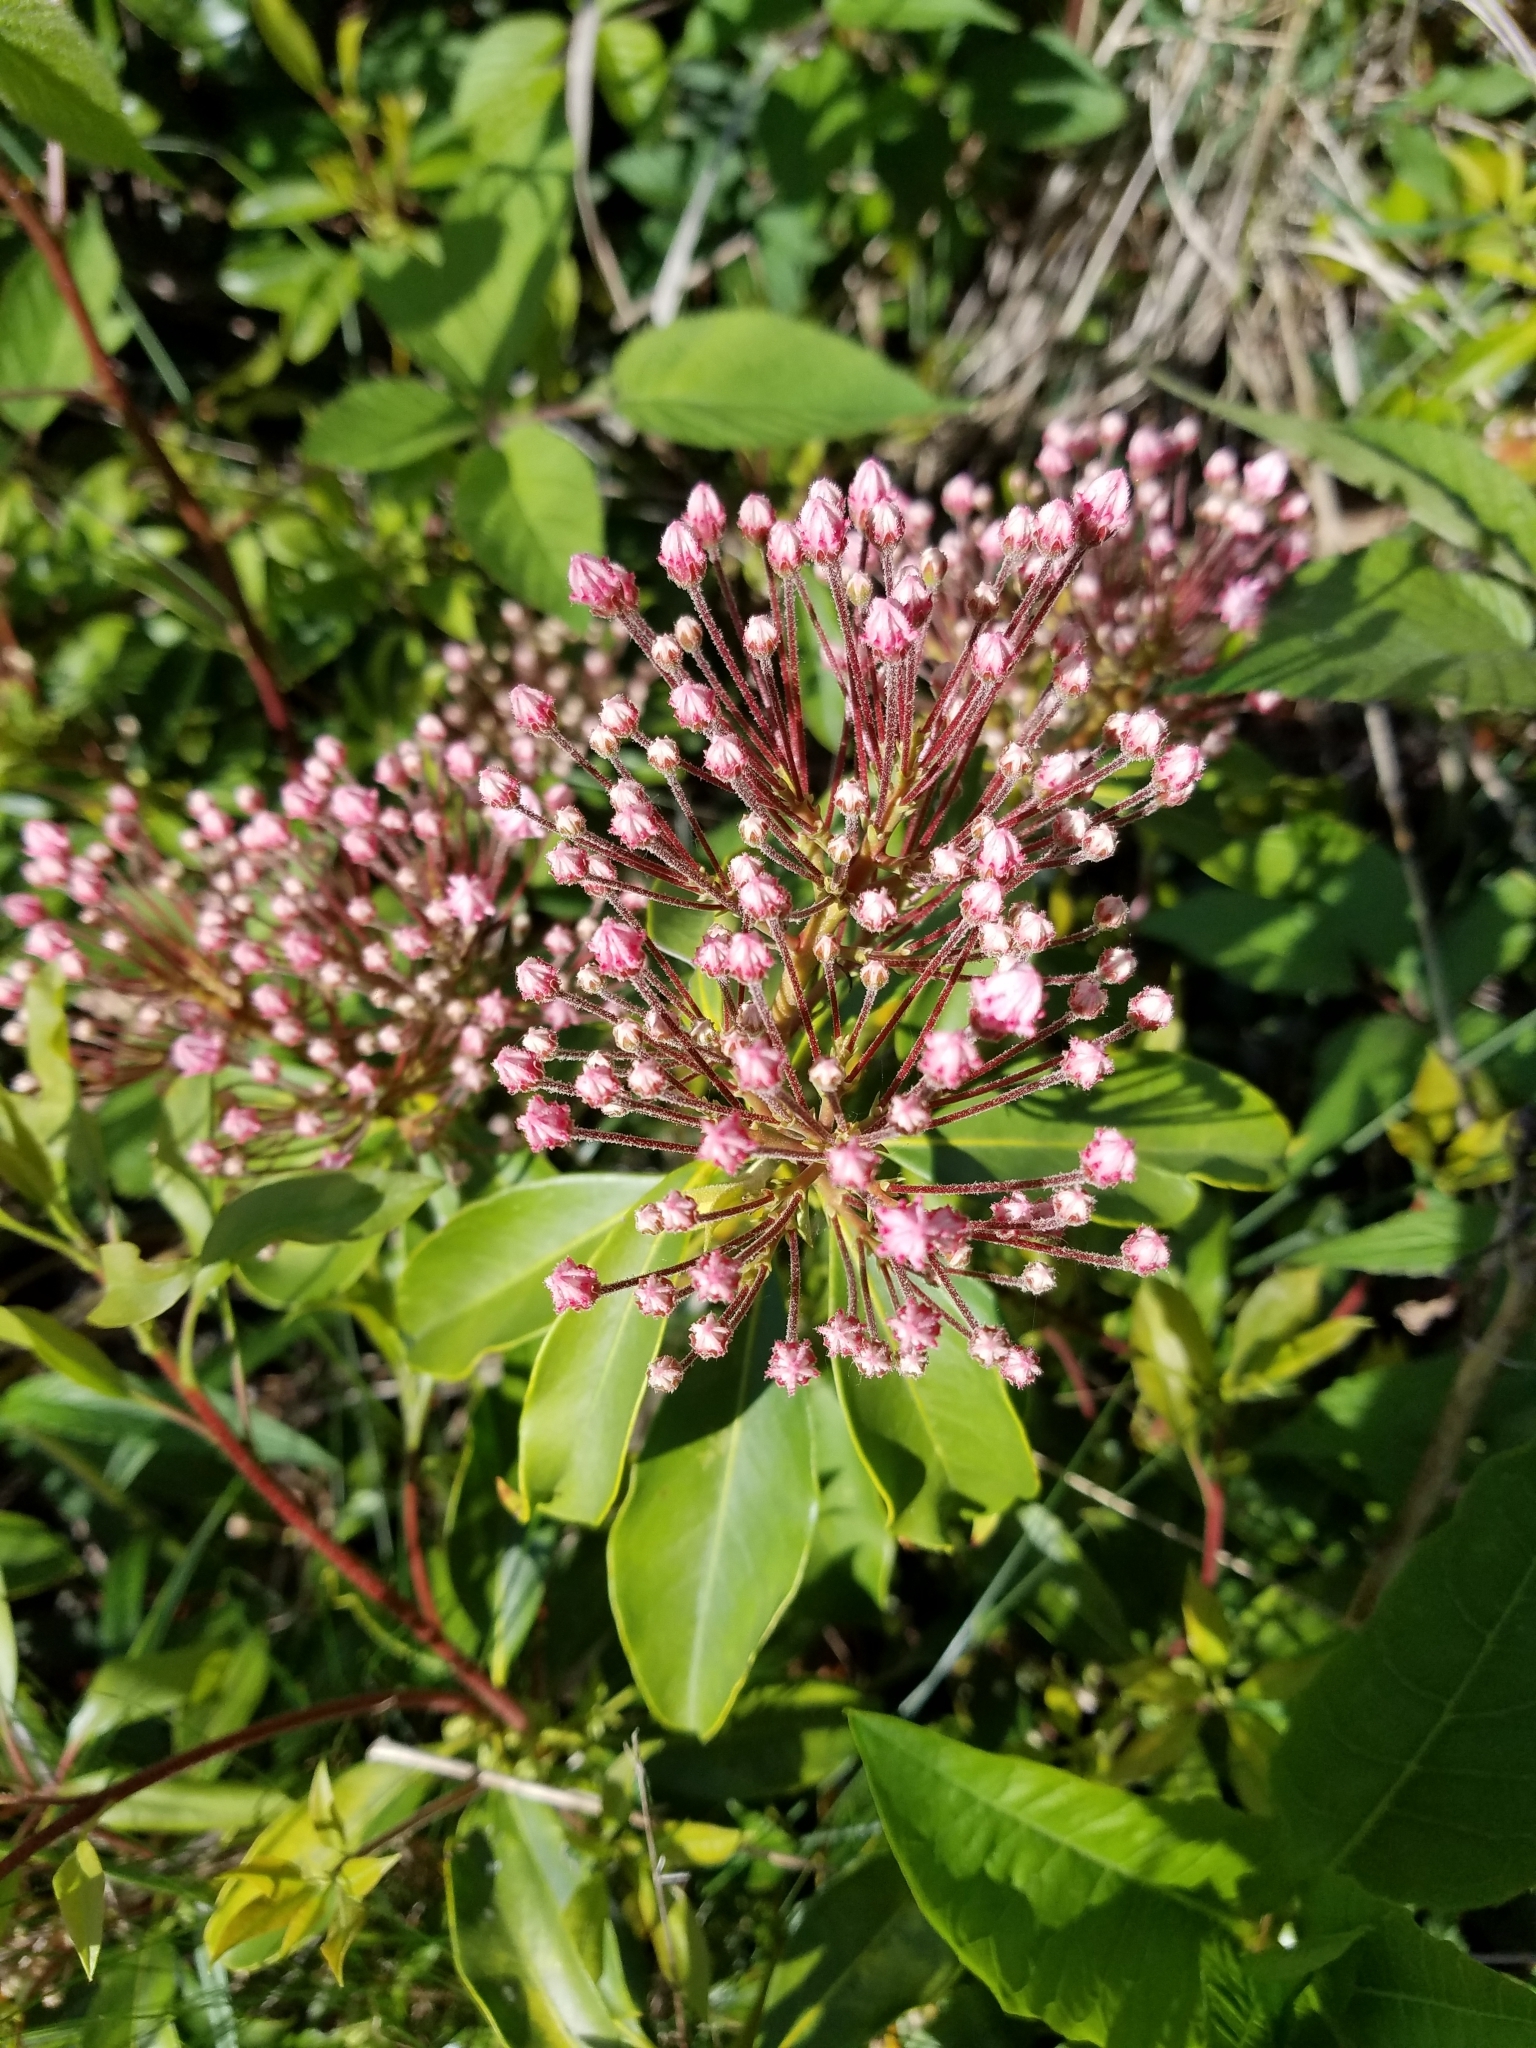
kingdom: Plantae
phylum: Tracheophyta
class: Magnoliopsida
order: Ericales
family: Ericaceae
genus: Kalmia
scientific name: Kalmia latifolia
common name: Mountain-laurel
